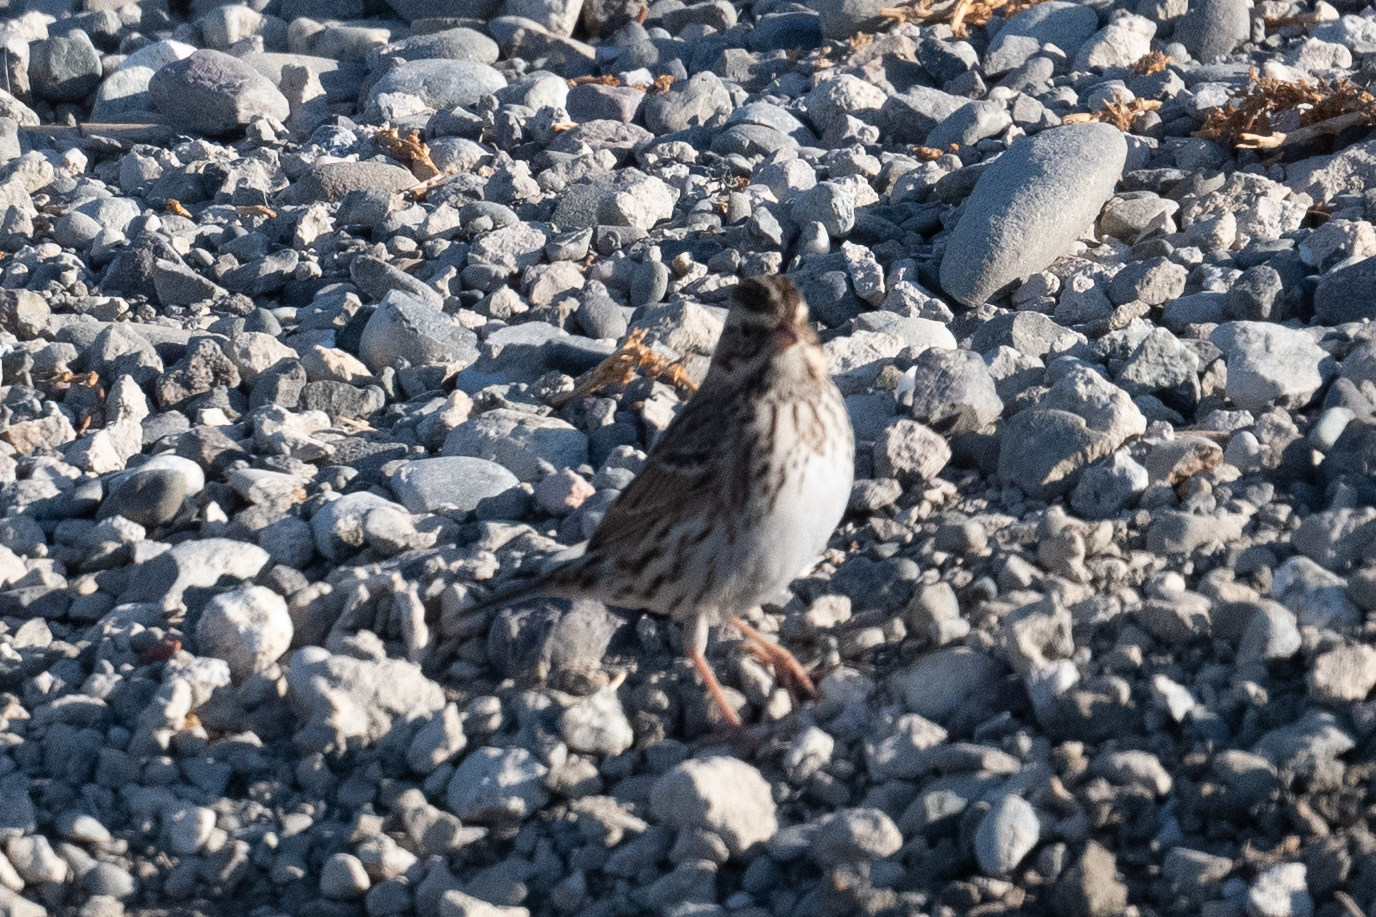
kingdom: Animalia
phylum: Chordata
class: Aves
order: Passeriformes
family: Passerellidae
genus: Passerculus
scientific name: Passerculus sandwichensis
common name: Savannah sparrow
